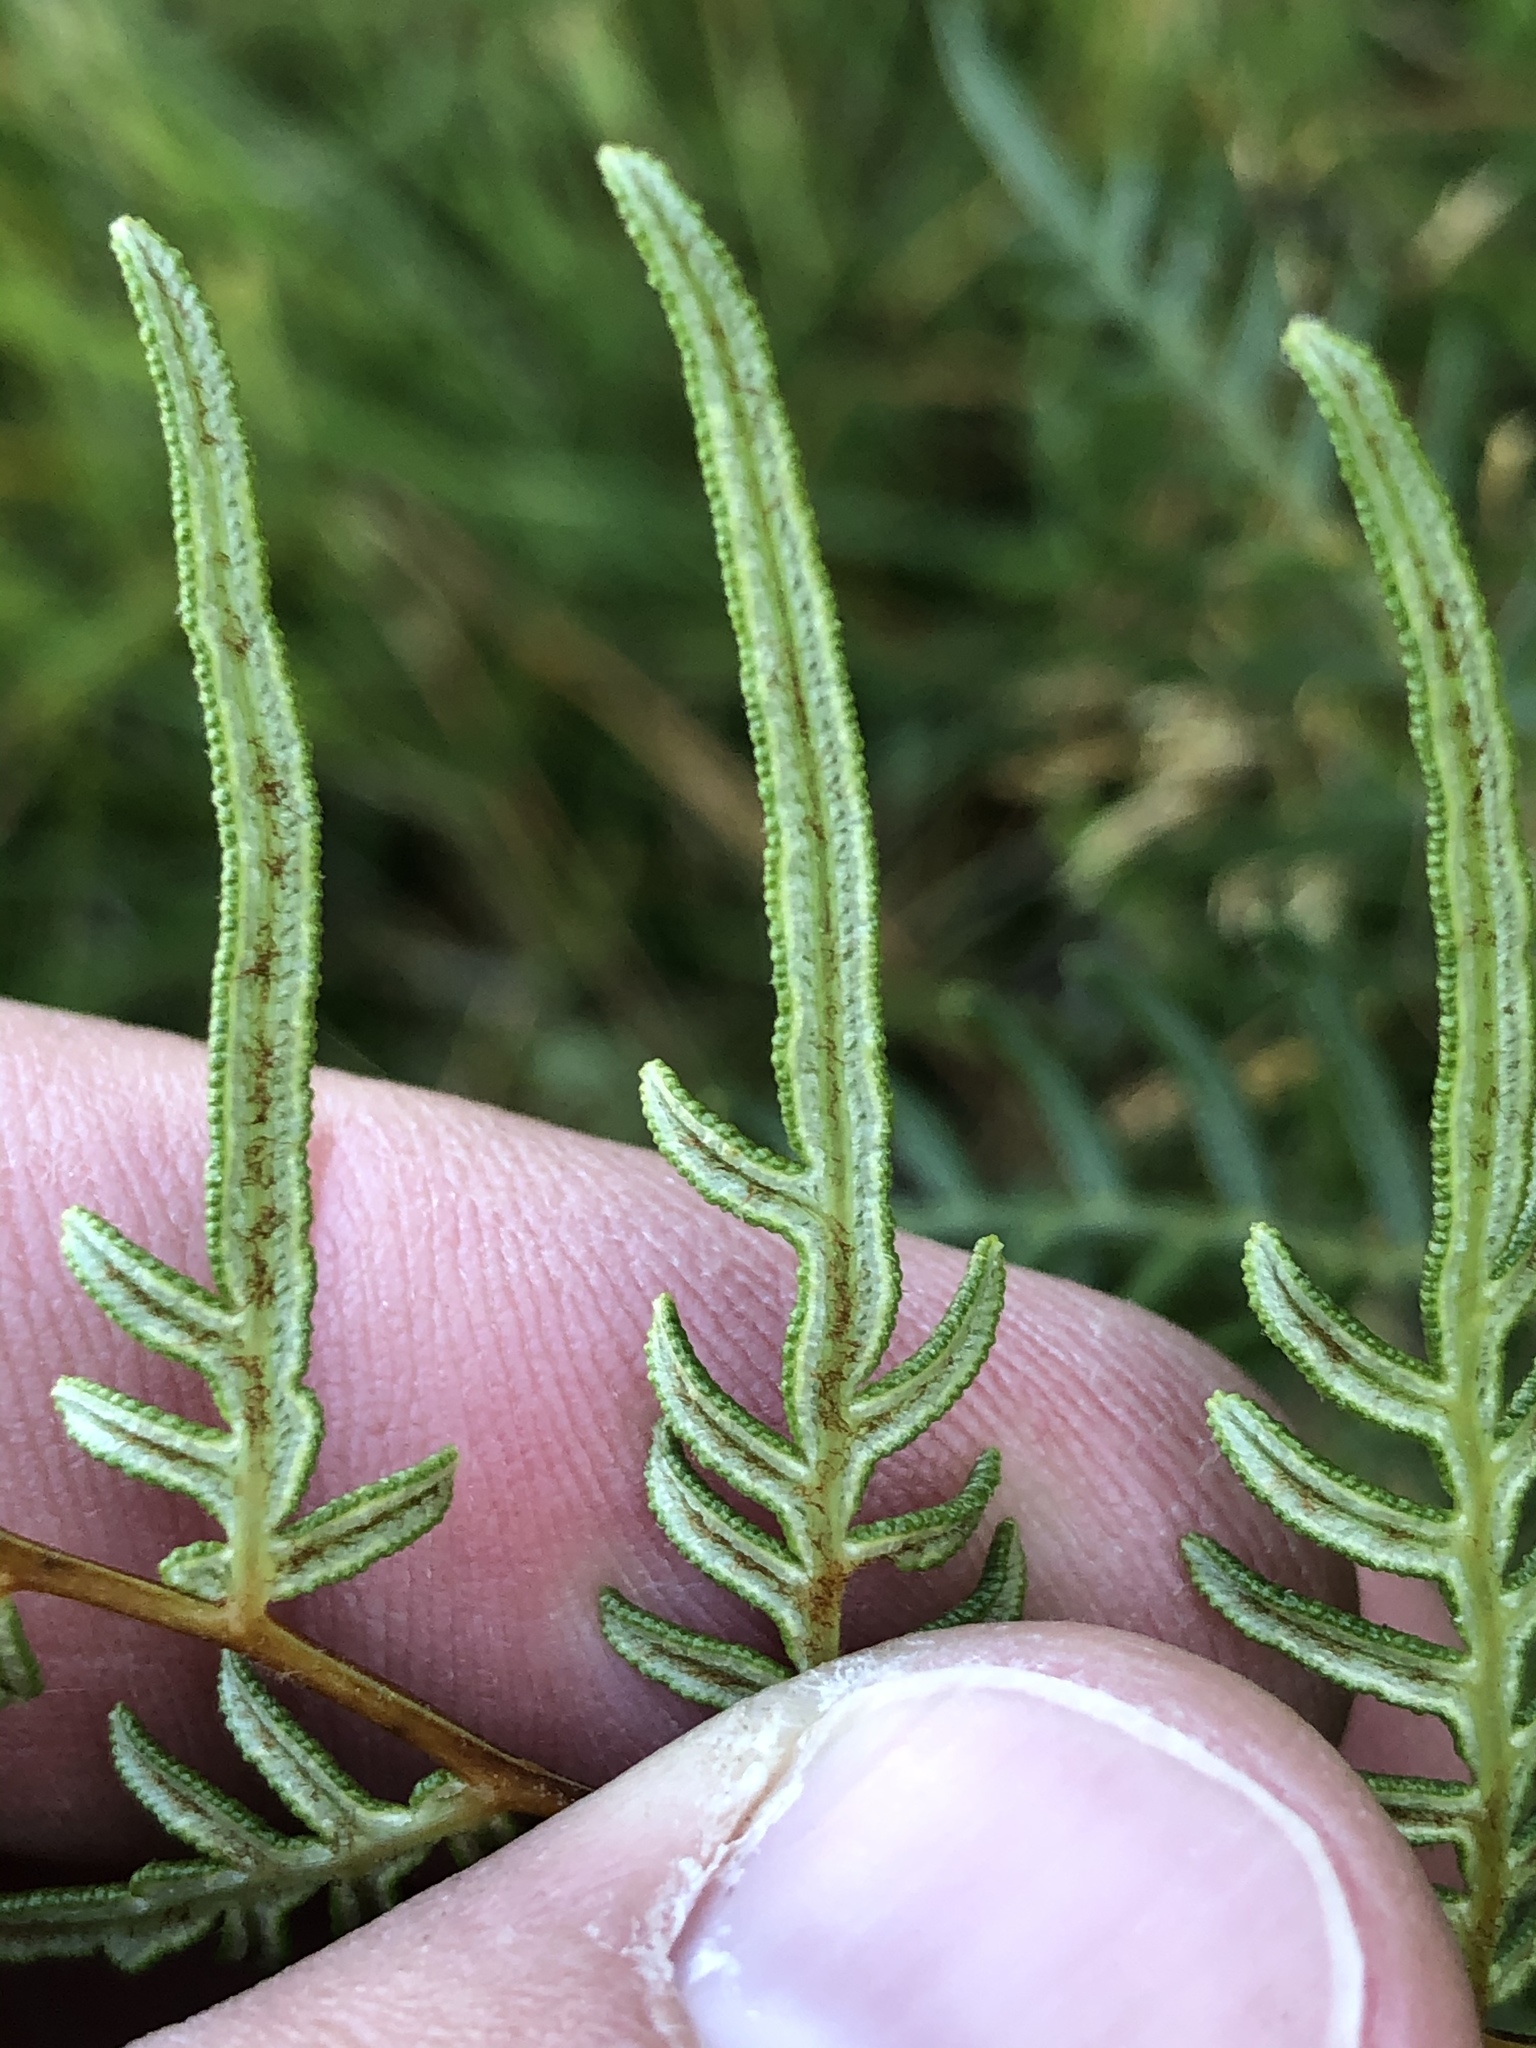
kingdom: Plantae
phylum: Tracheophyta
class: Polypodiopsida
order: Polypodiales
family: Dennstaedtiaceae
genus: Pteridium
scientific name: Pteridium esculentum
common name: Bracken fern
